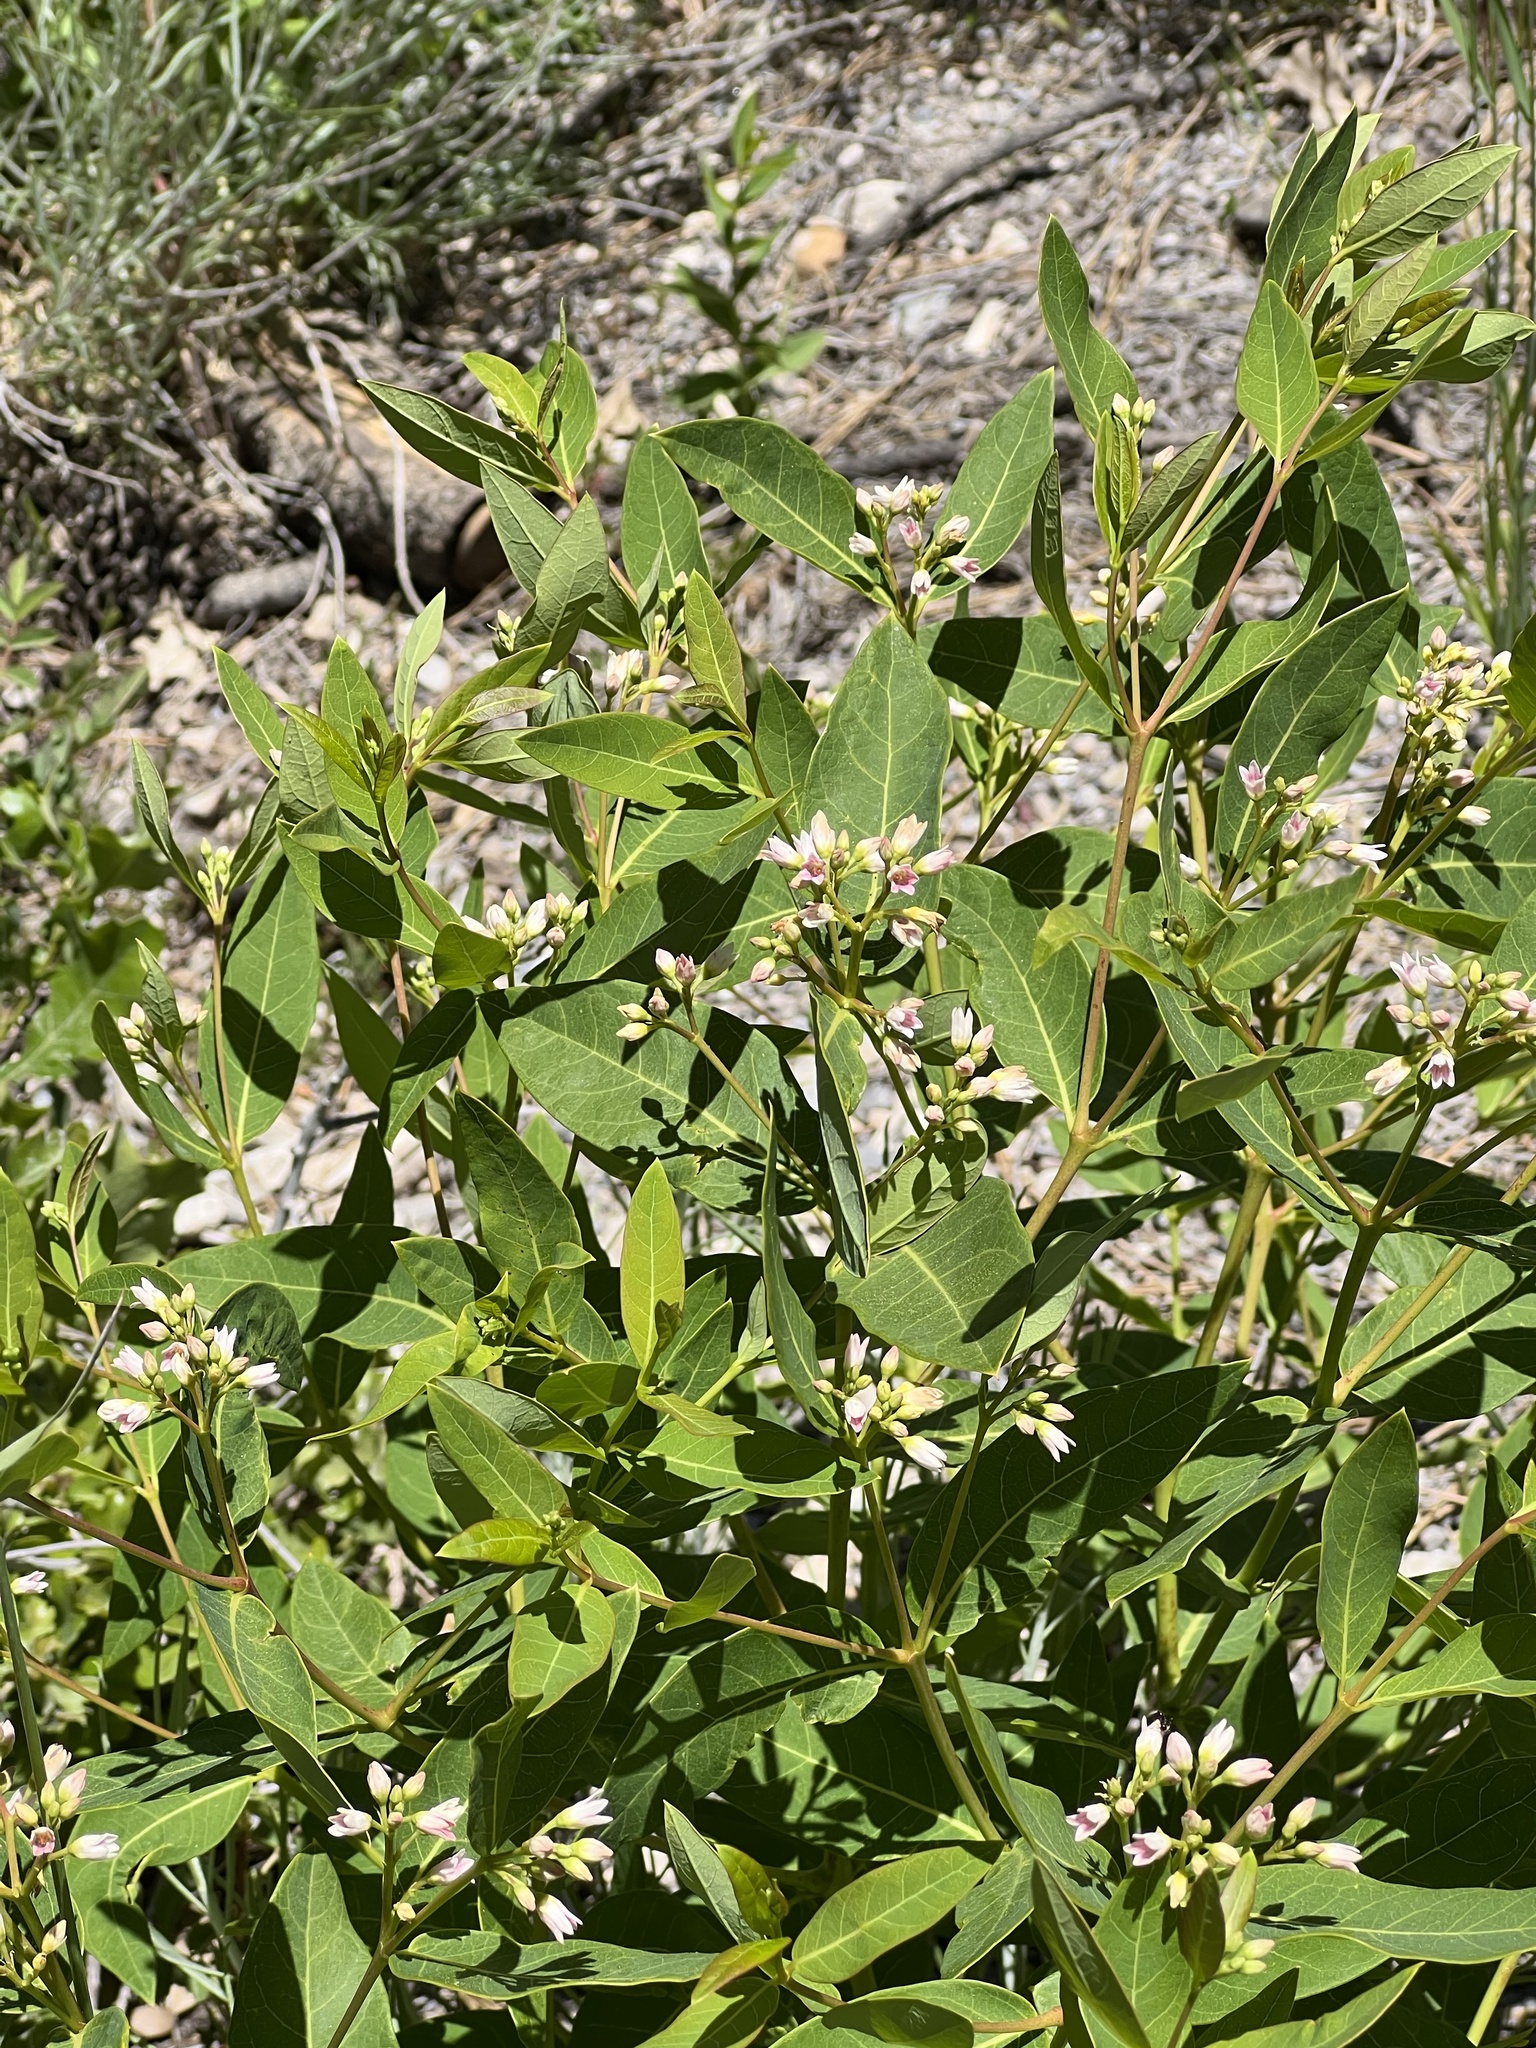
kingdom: Plantae
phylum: Tracheophyta
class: Magnoliopsida
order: Gentianales
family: Apocynaceae
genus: Apocynum
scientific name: Apocynum androsaemifolium
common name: Spreading dogbane
